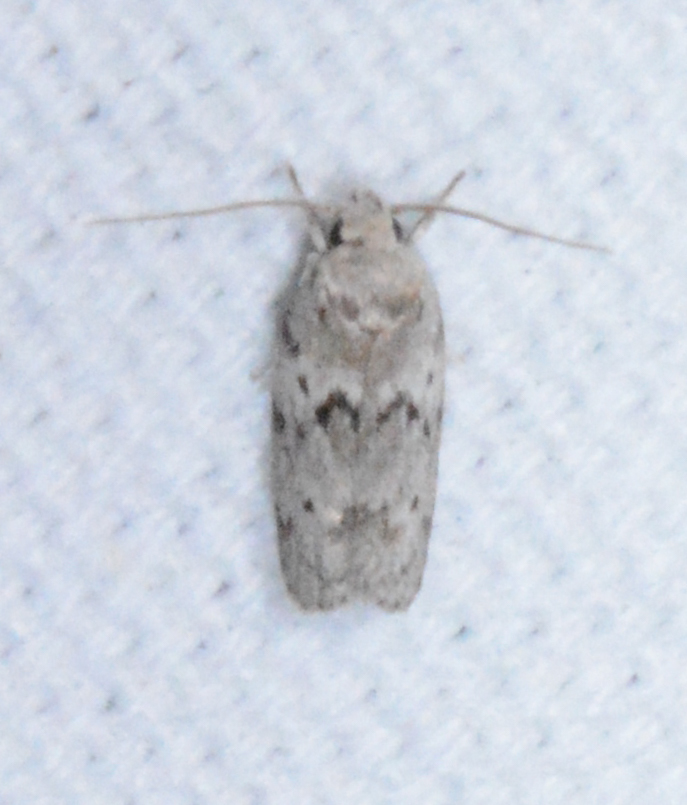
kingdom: Animalia
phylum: Arthropoda
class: Insecta
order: Lepidoptera
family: Depressariidae
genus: Antaeotricha
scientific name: Antaeotricha humilis
